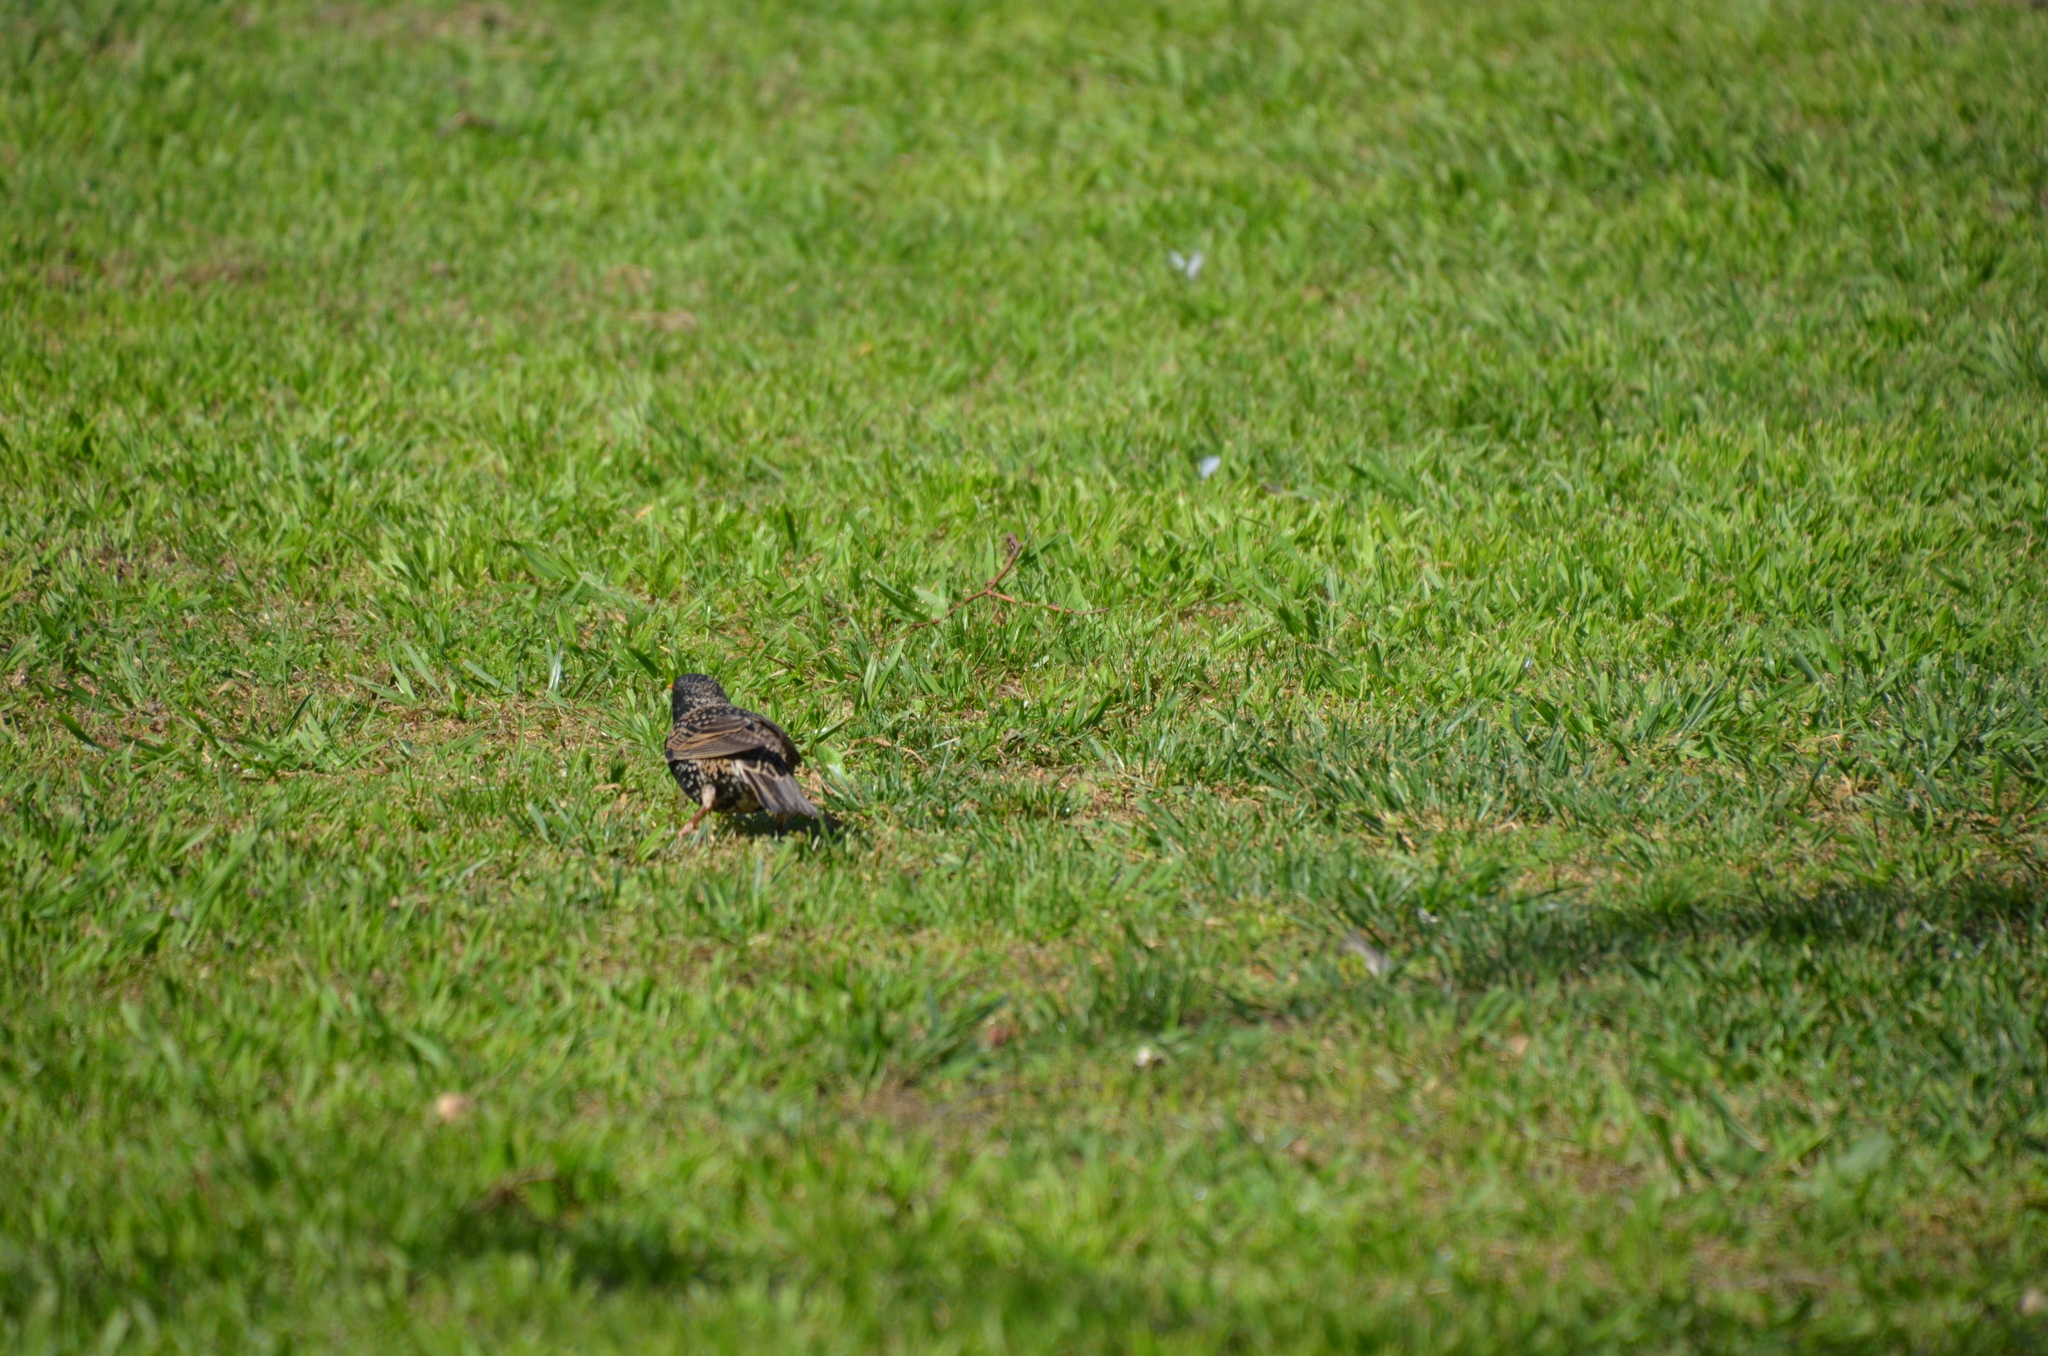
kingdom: Animalia
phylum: Chordata
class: Aves
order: Passeriformes
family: Sturnidae
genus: Sturnus
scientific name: Sturnus vulgaris
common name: Common starling
